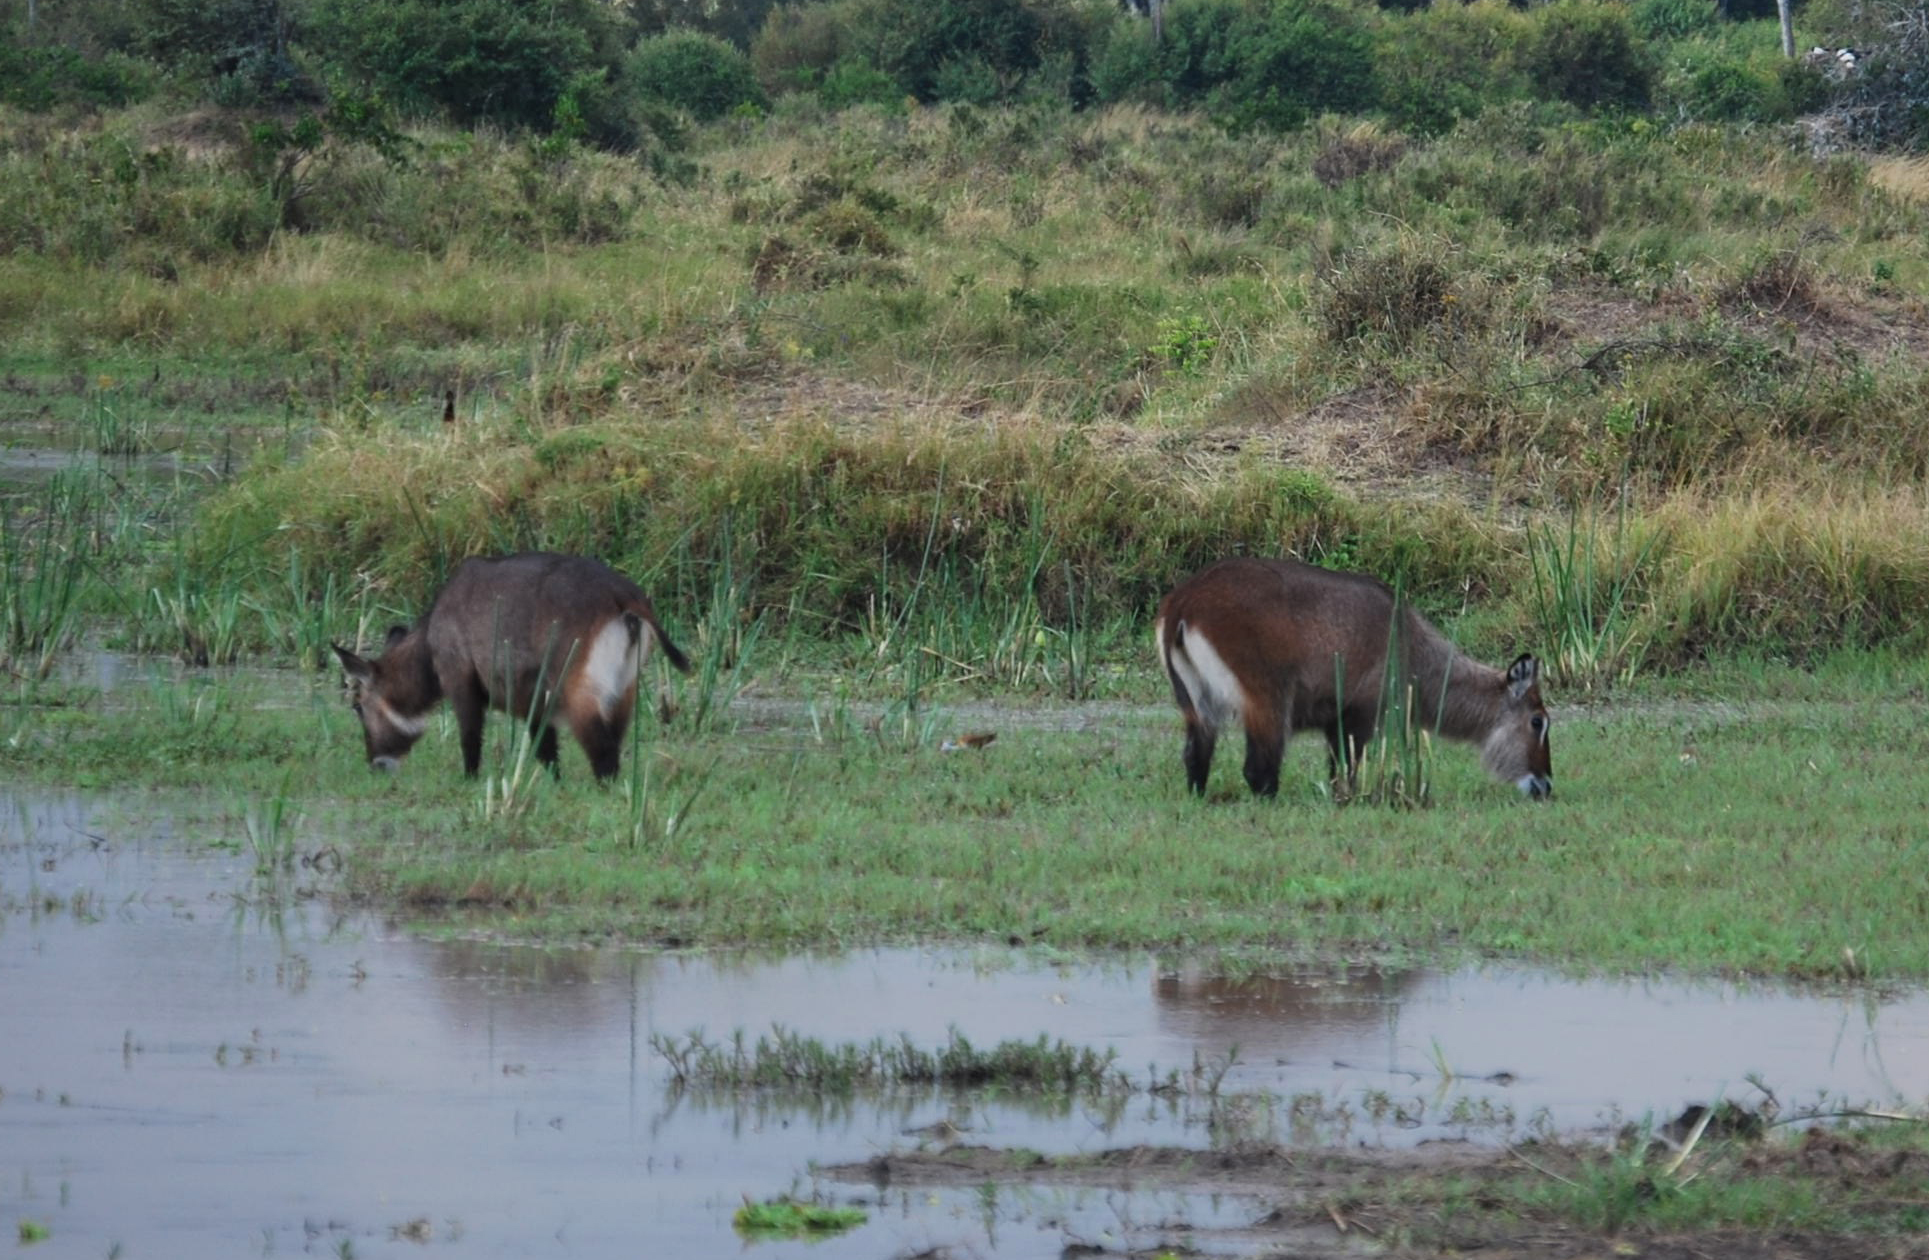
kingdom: Animalia
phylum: Chordata
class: Mammalia
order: Artiodactyla
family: Bovidae
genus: Kobus
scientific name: Kobus ellipsiprymnus
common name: Waterbuck
